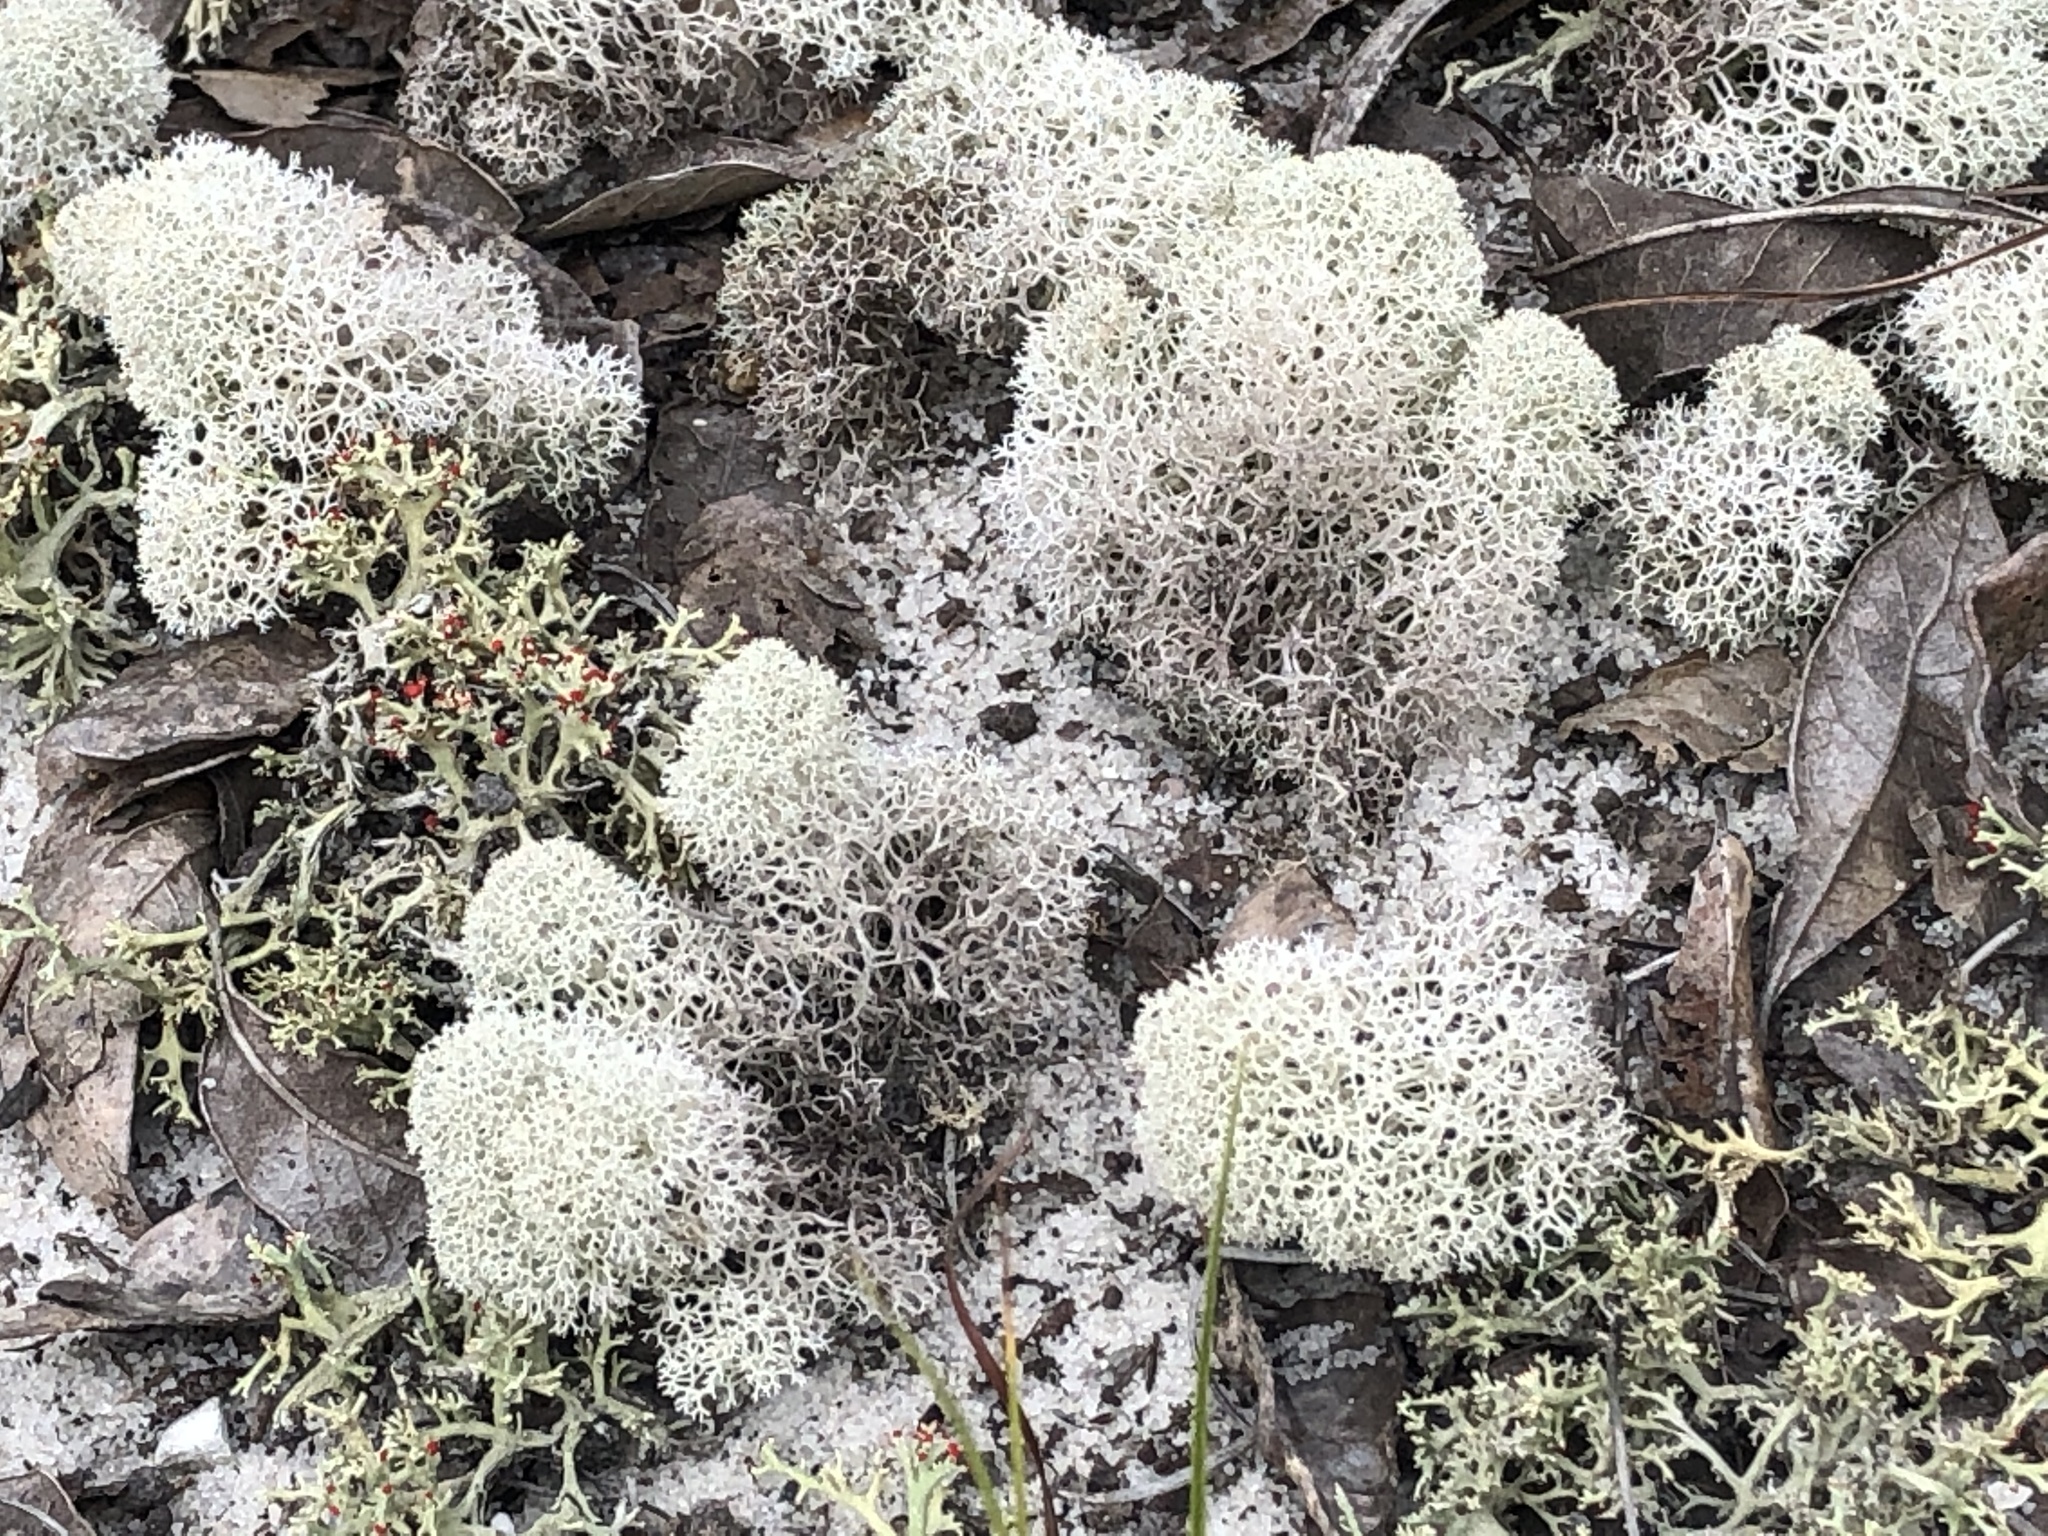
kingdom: Fungi
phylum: Ascomycota
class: Lecanoromycetes
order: Lecanorales
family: Cladoniaceae
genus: Cladonia
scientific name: Cladonia evansii
